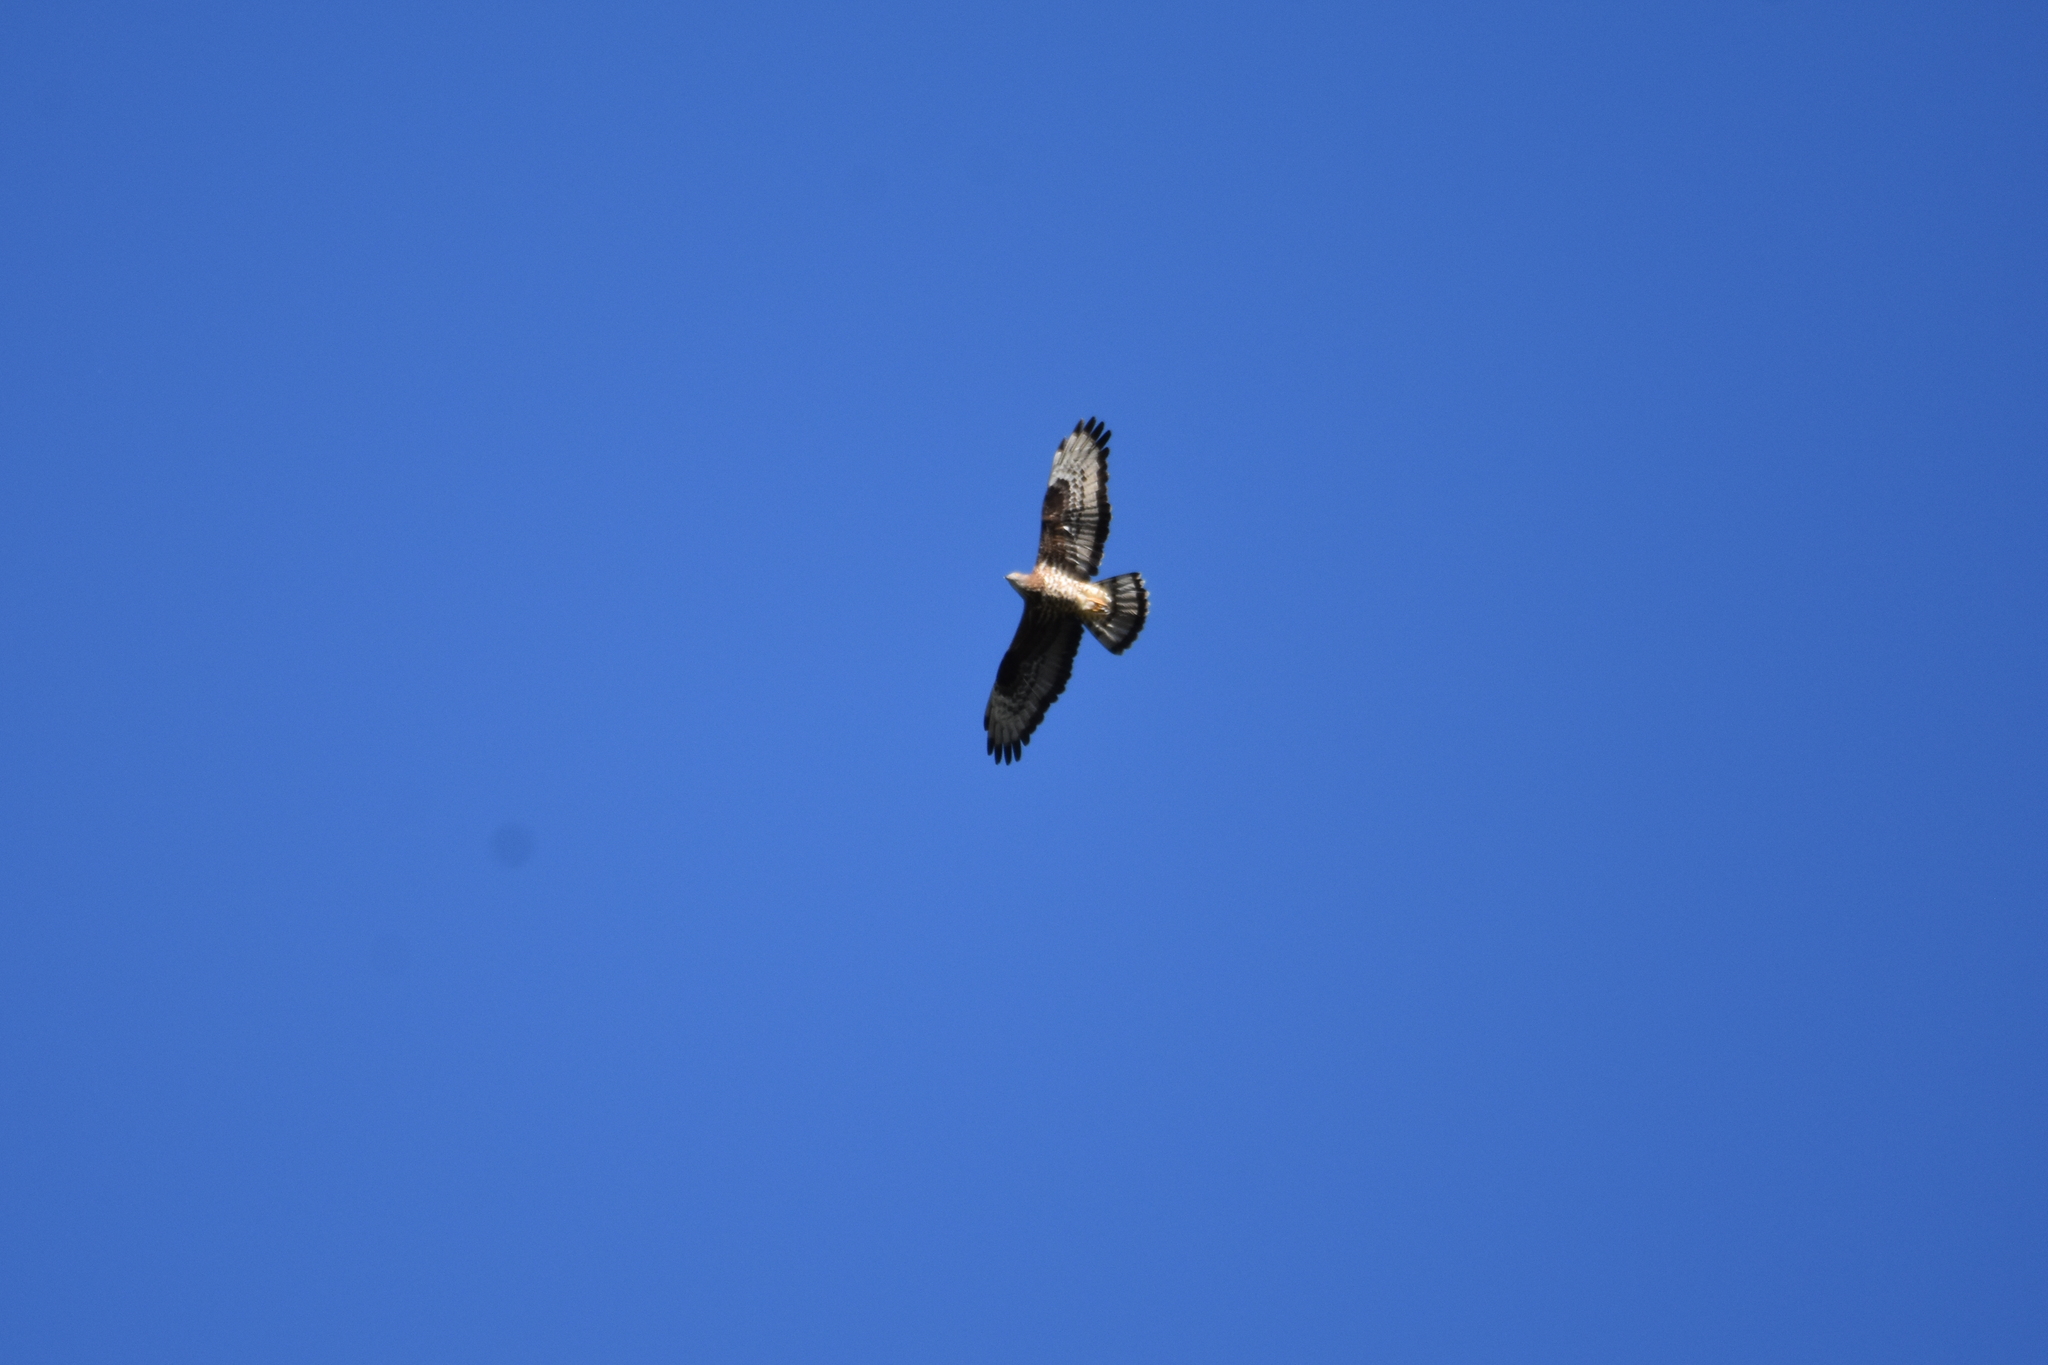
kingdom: Animalia
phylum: Chordata
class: Aves
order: Accipitriformes
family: Accipitridae
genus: Pernis
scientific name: Pernis apivorus
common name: European honey buzzard
